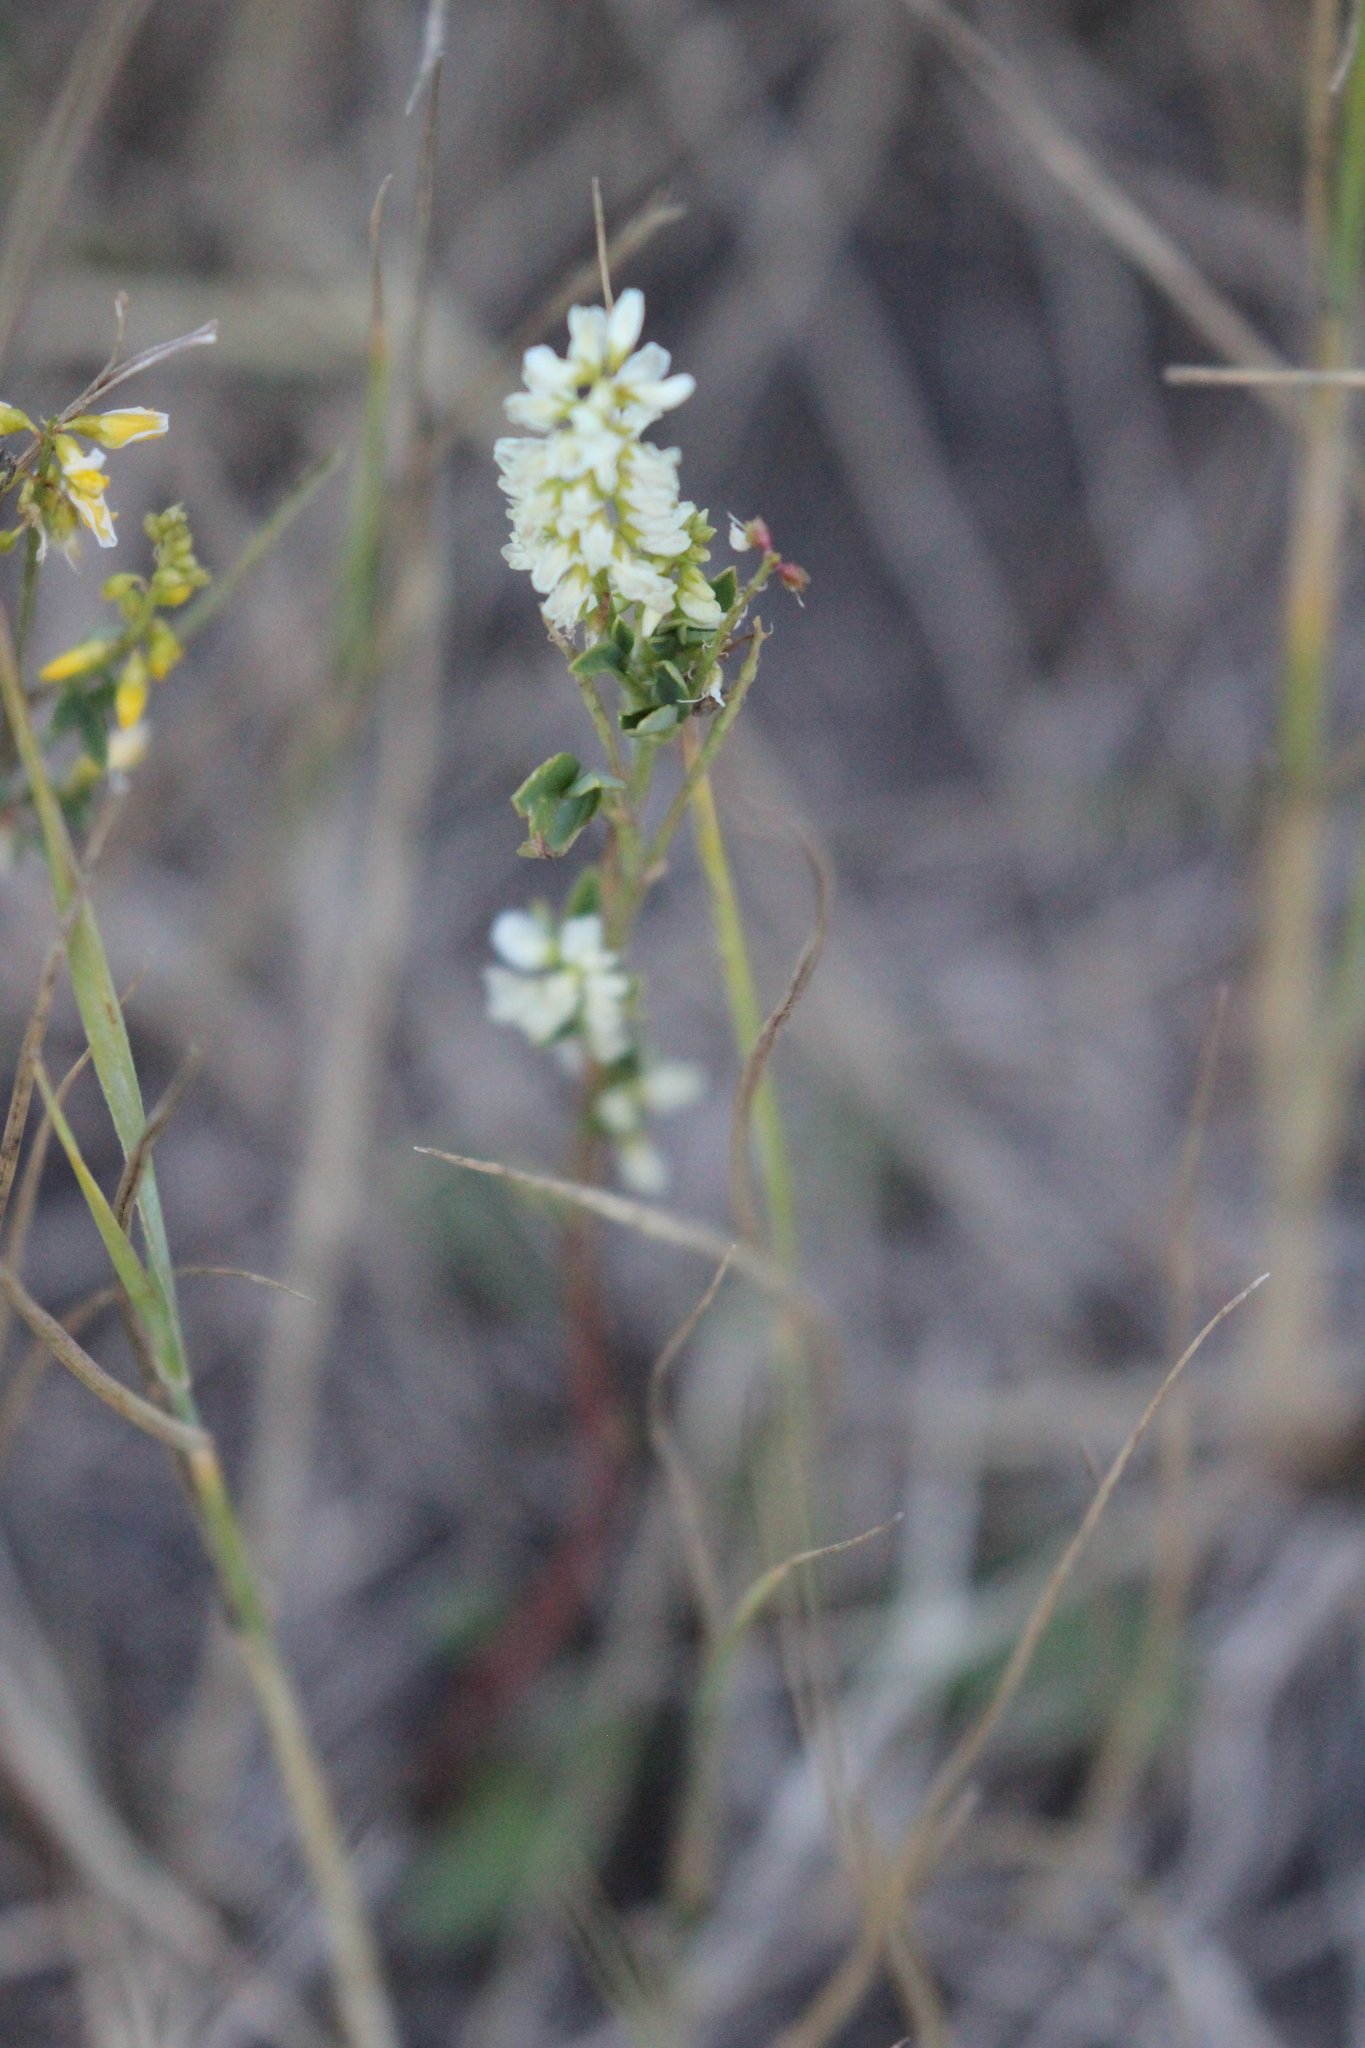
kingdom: Plantae
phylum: Tracheophyta
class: Magnoliopsida
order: Fabales
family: Fabaceae
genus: Melilotus
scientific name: Melilotus albus
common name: White melilot
